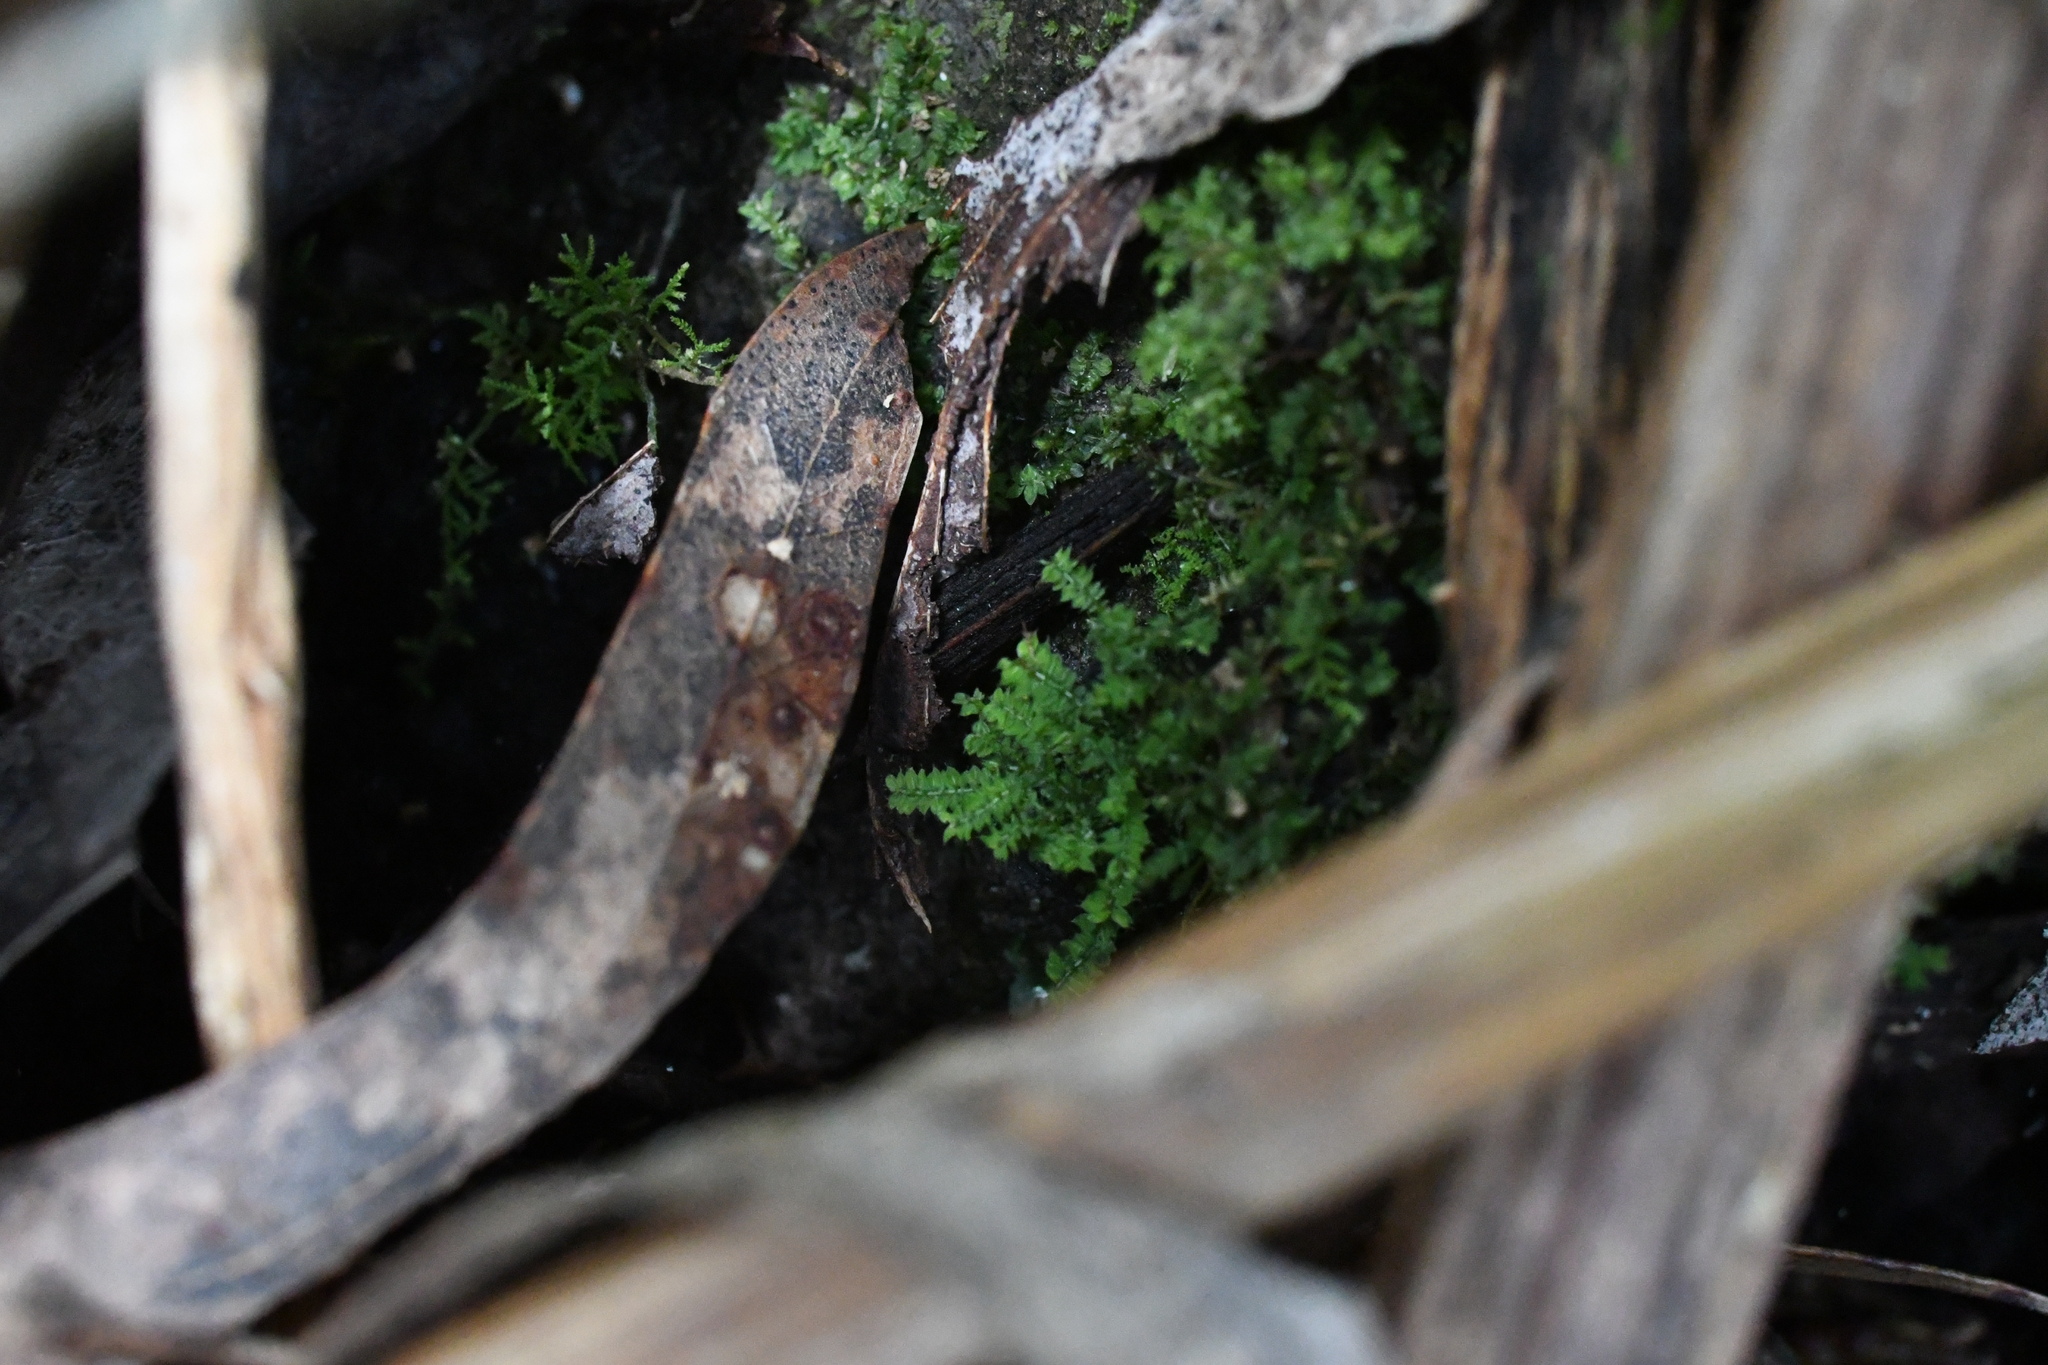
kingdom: Plantae
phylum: Bryophyta
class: Bryopsida
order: Hypnodendrales
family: Racopilaceae
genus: Racopilum
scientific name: Racopilum cuspidigerum
